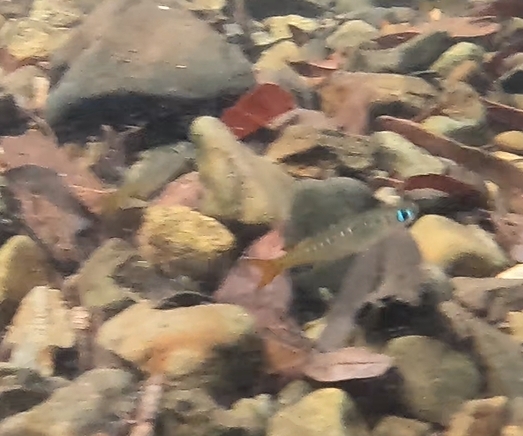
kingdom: Animalia
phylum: Chordata
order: Atheriniformes
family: Pseudomugilidae
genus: Pseudomugil
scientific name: Pseudomugil signifer
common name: Blue eye
